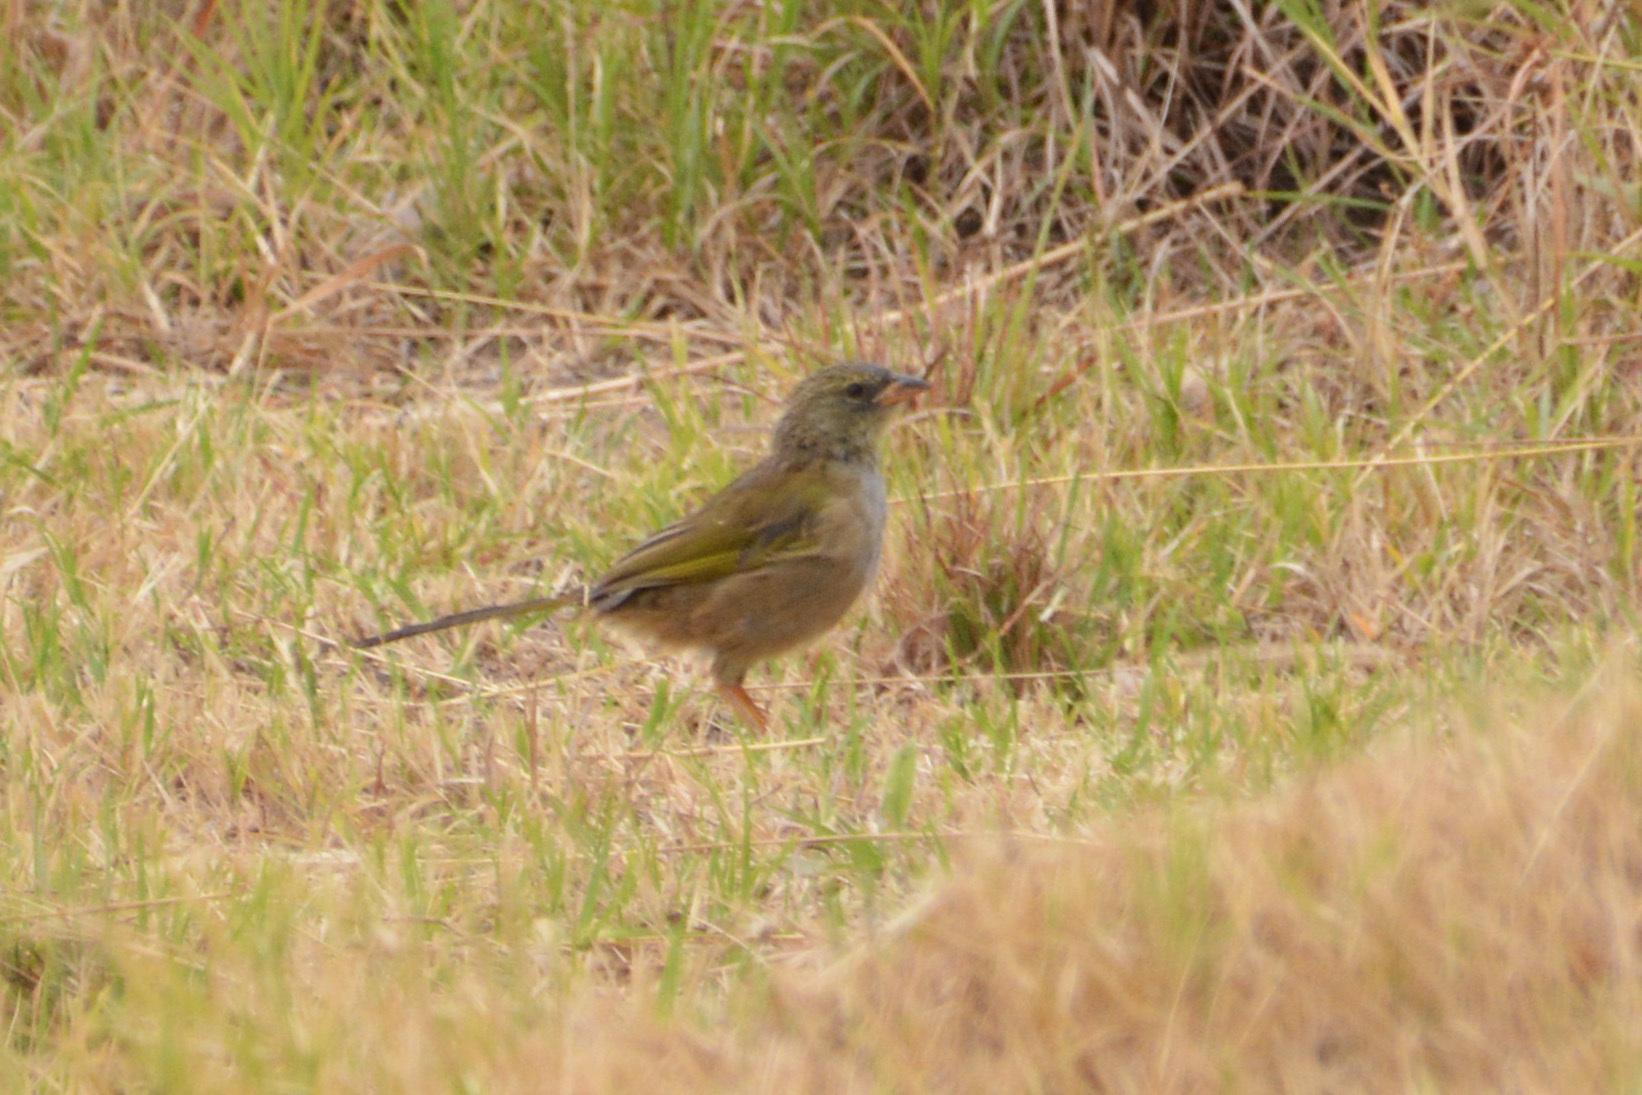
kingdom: Animalia
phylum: Chordata
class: Aves
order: Passeriformes
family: Thraupidae
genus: Embernagra
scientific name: Embernagra platensis
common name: Pampa finch
